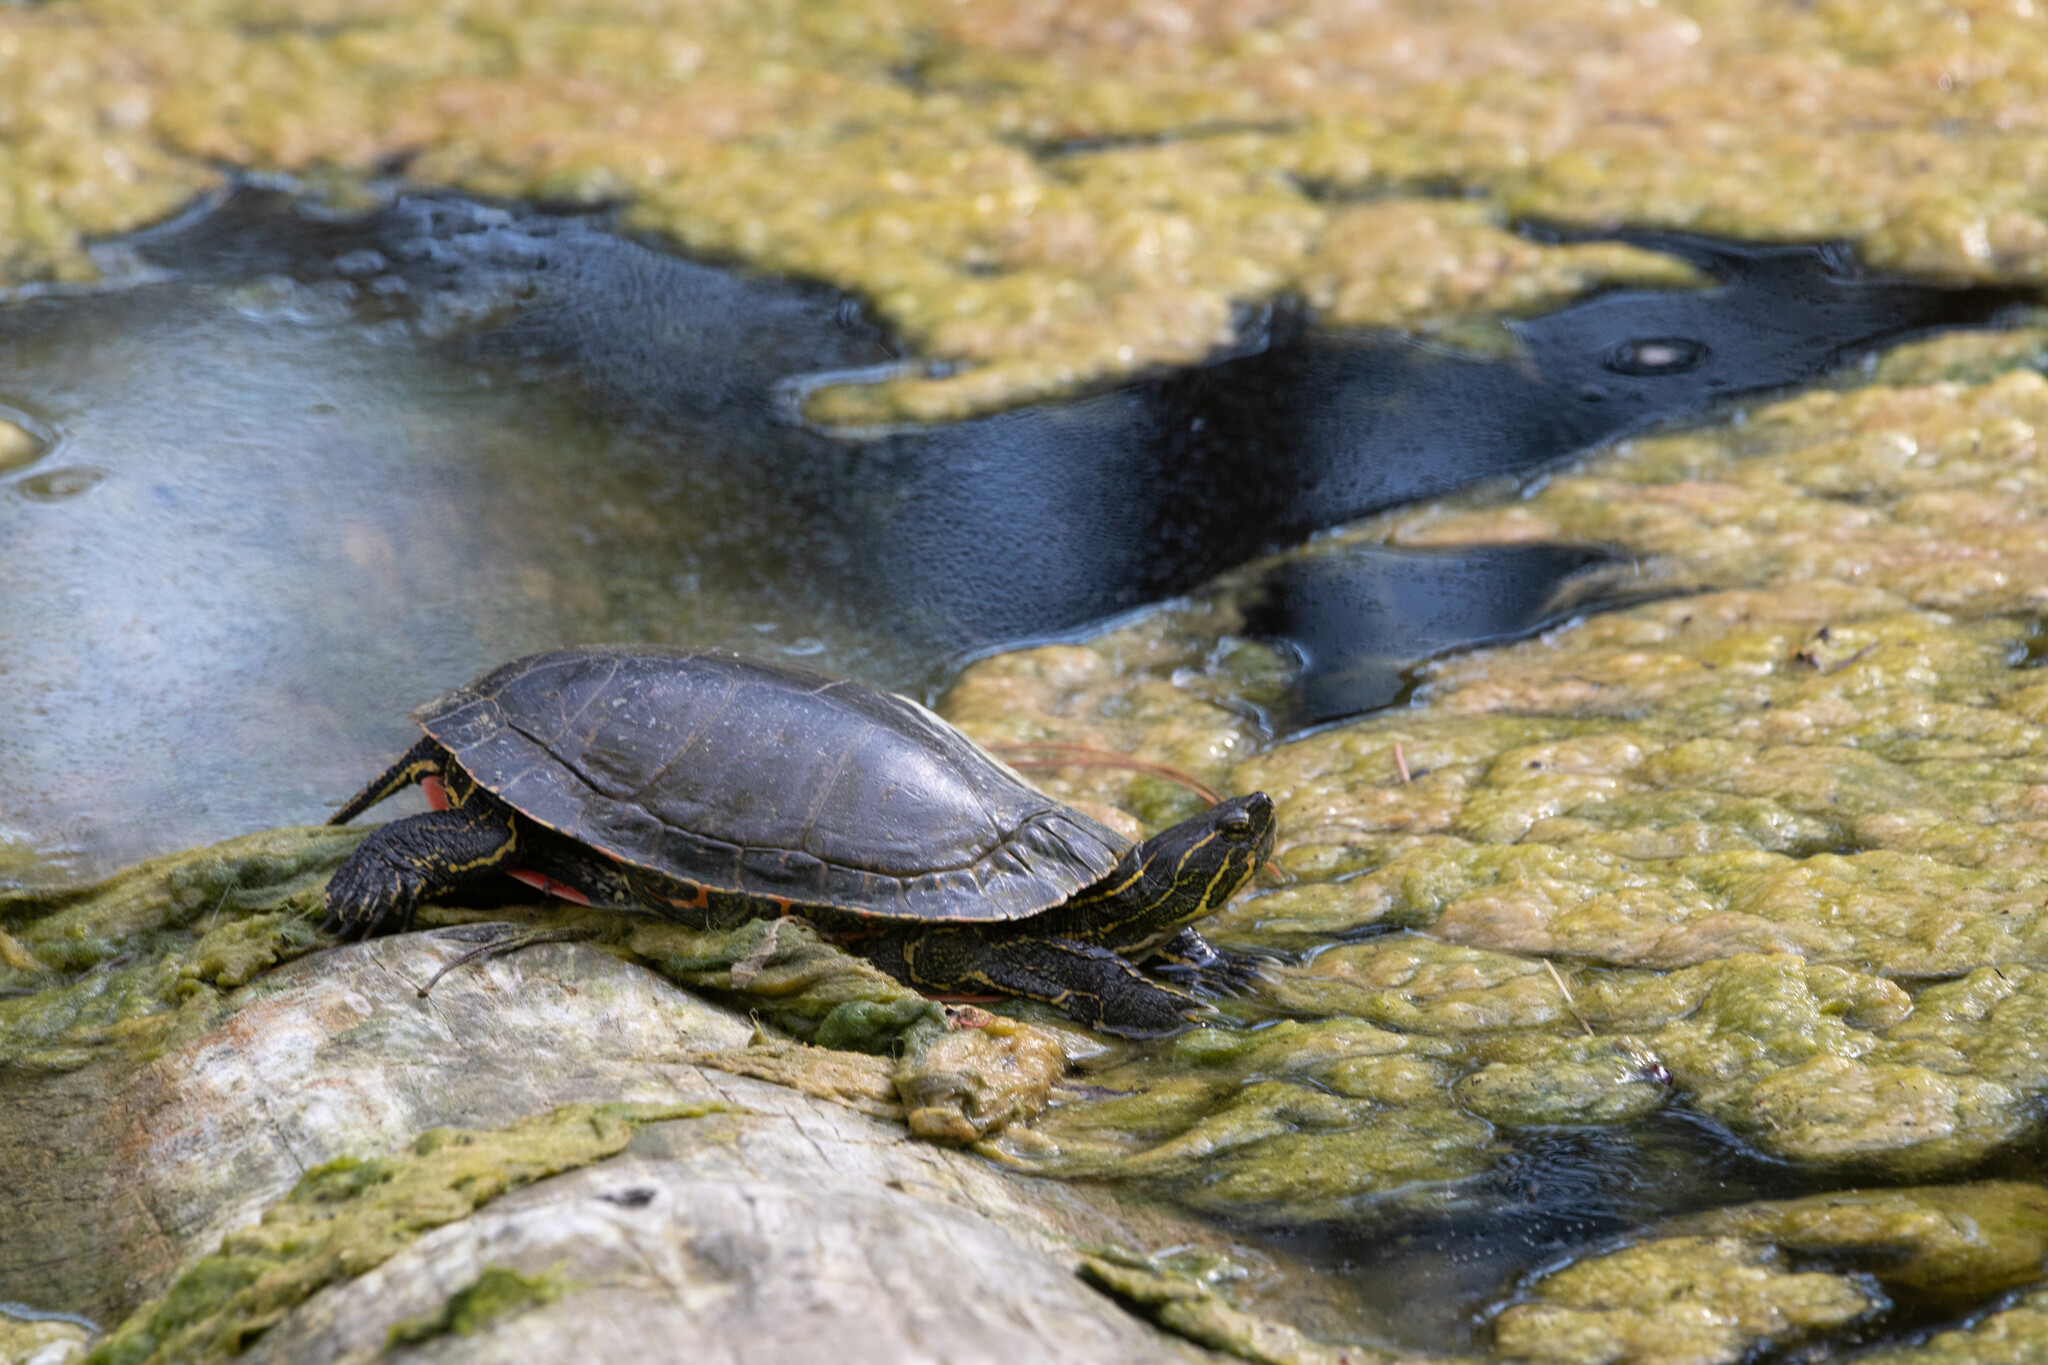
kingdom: Animalia
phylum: Chordata
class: Testudines
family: Emydidae
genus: Chrysemys
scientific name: Chrysemys picta
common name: Painted turtle
